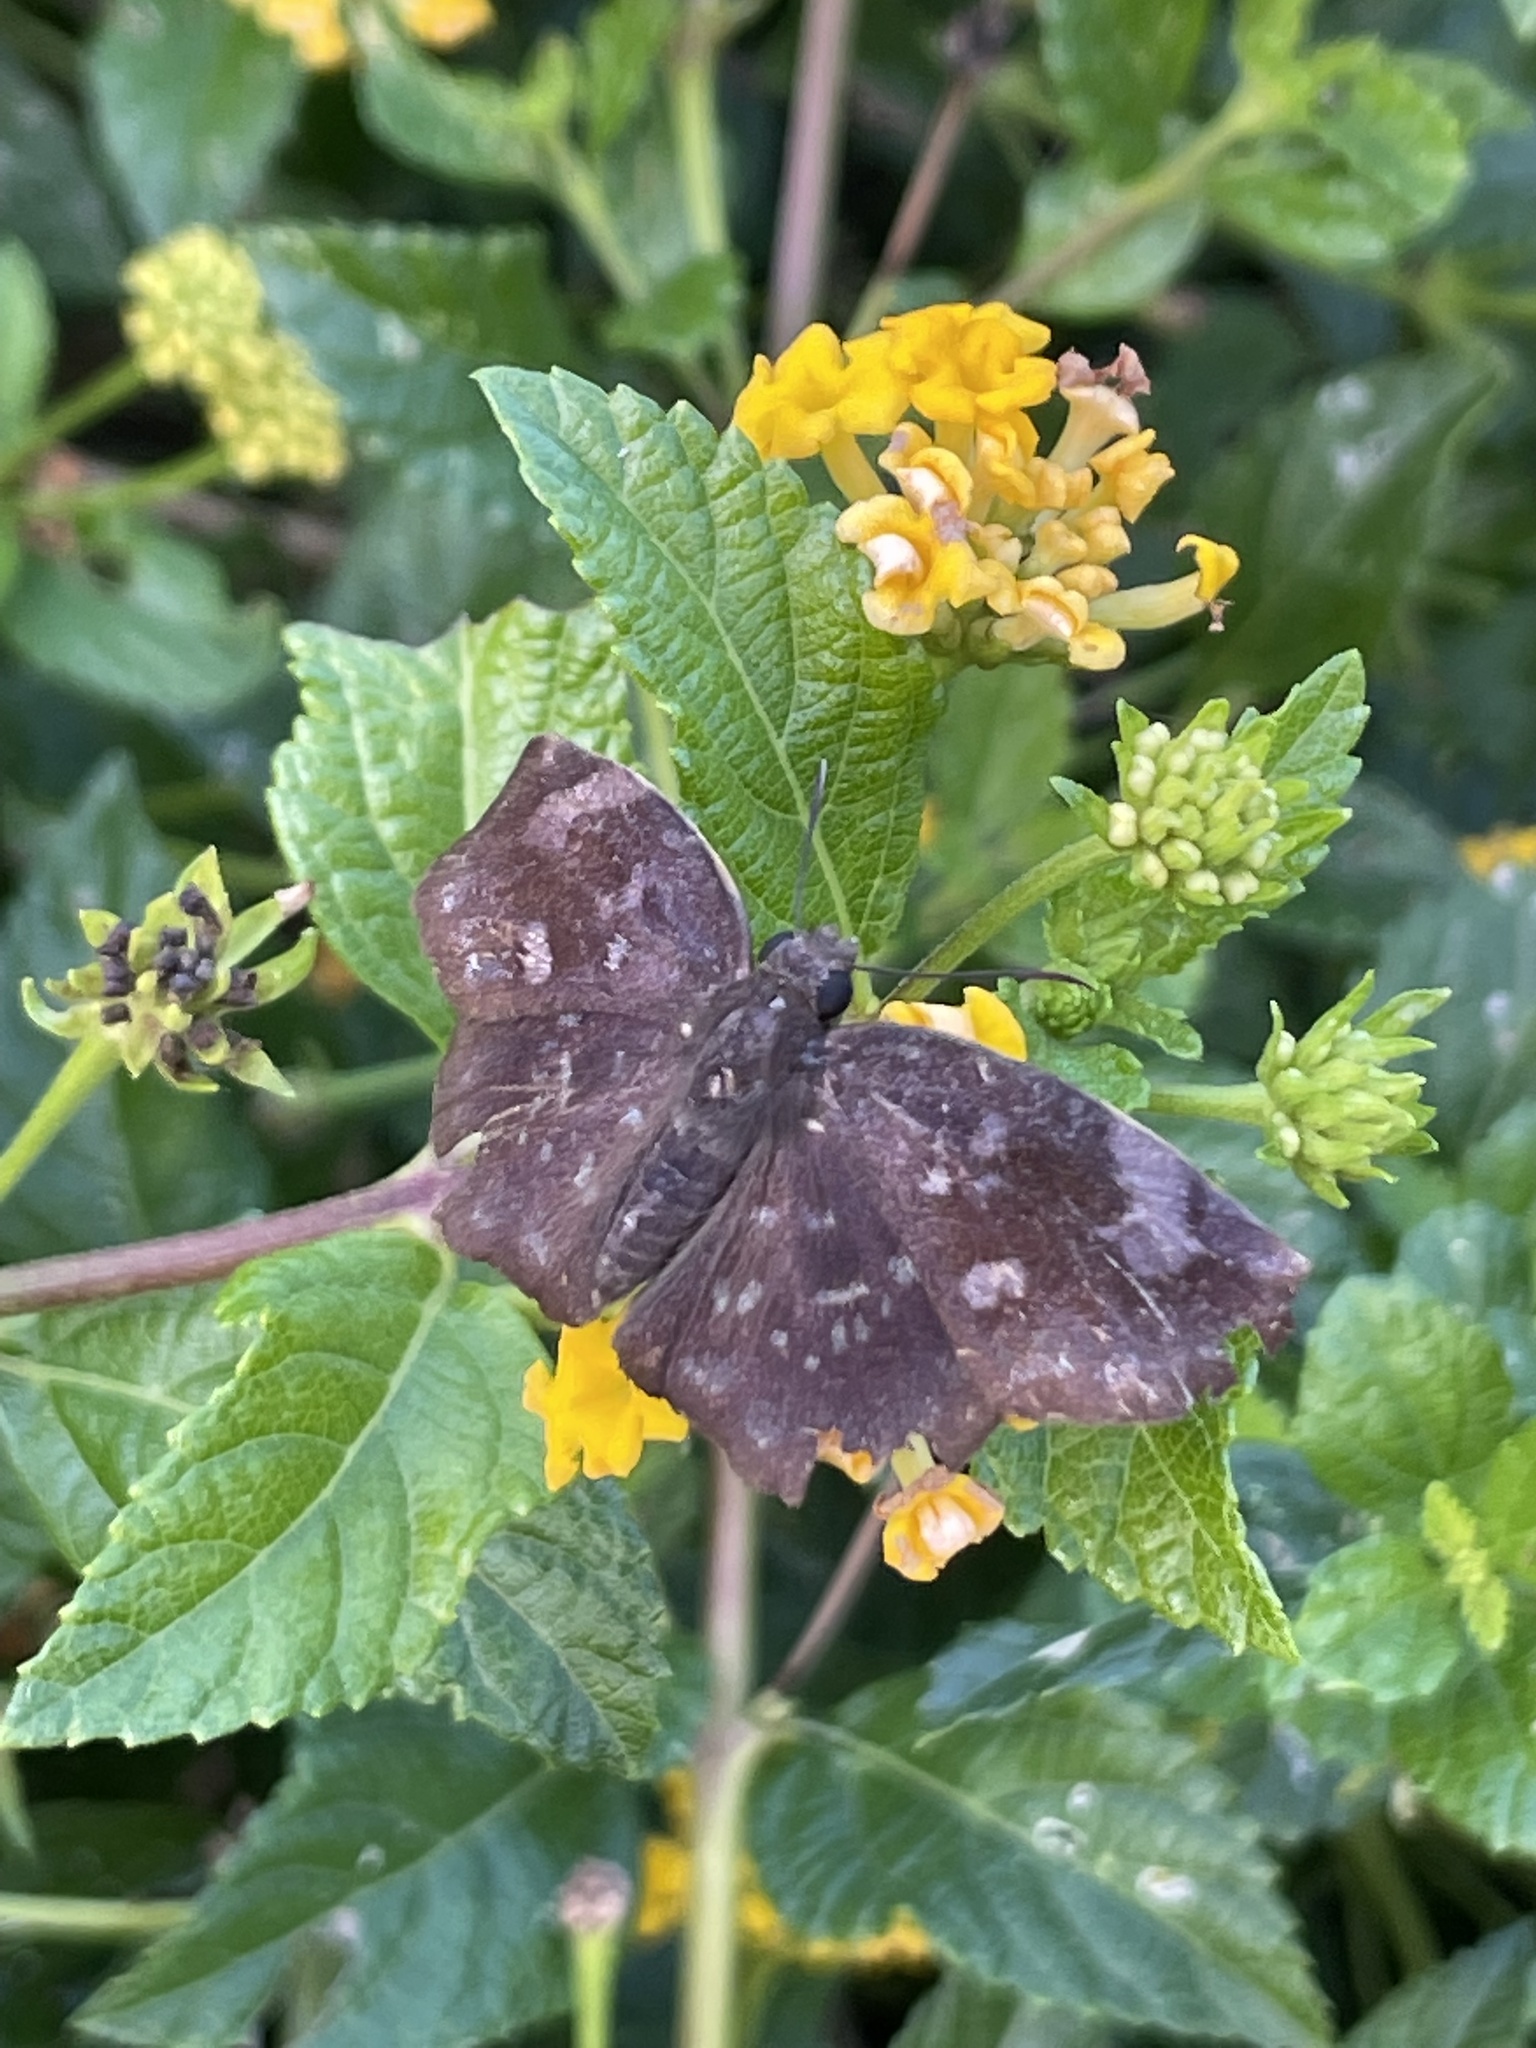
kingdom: Animalia
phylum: Arthropoda
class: Insecta
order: Lepidoptera
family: Hesperiidae
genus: Achlyodes
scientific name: Achlyodes thraso
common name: Sickle-winged skipper
